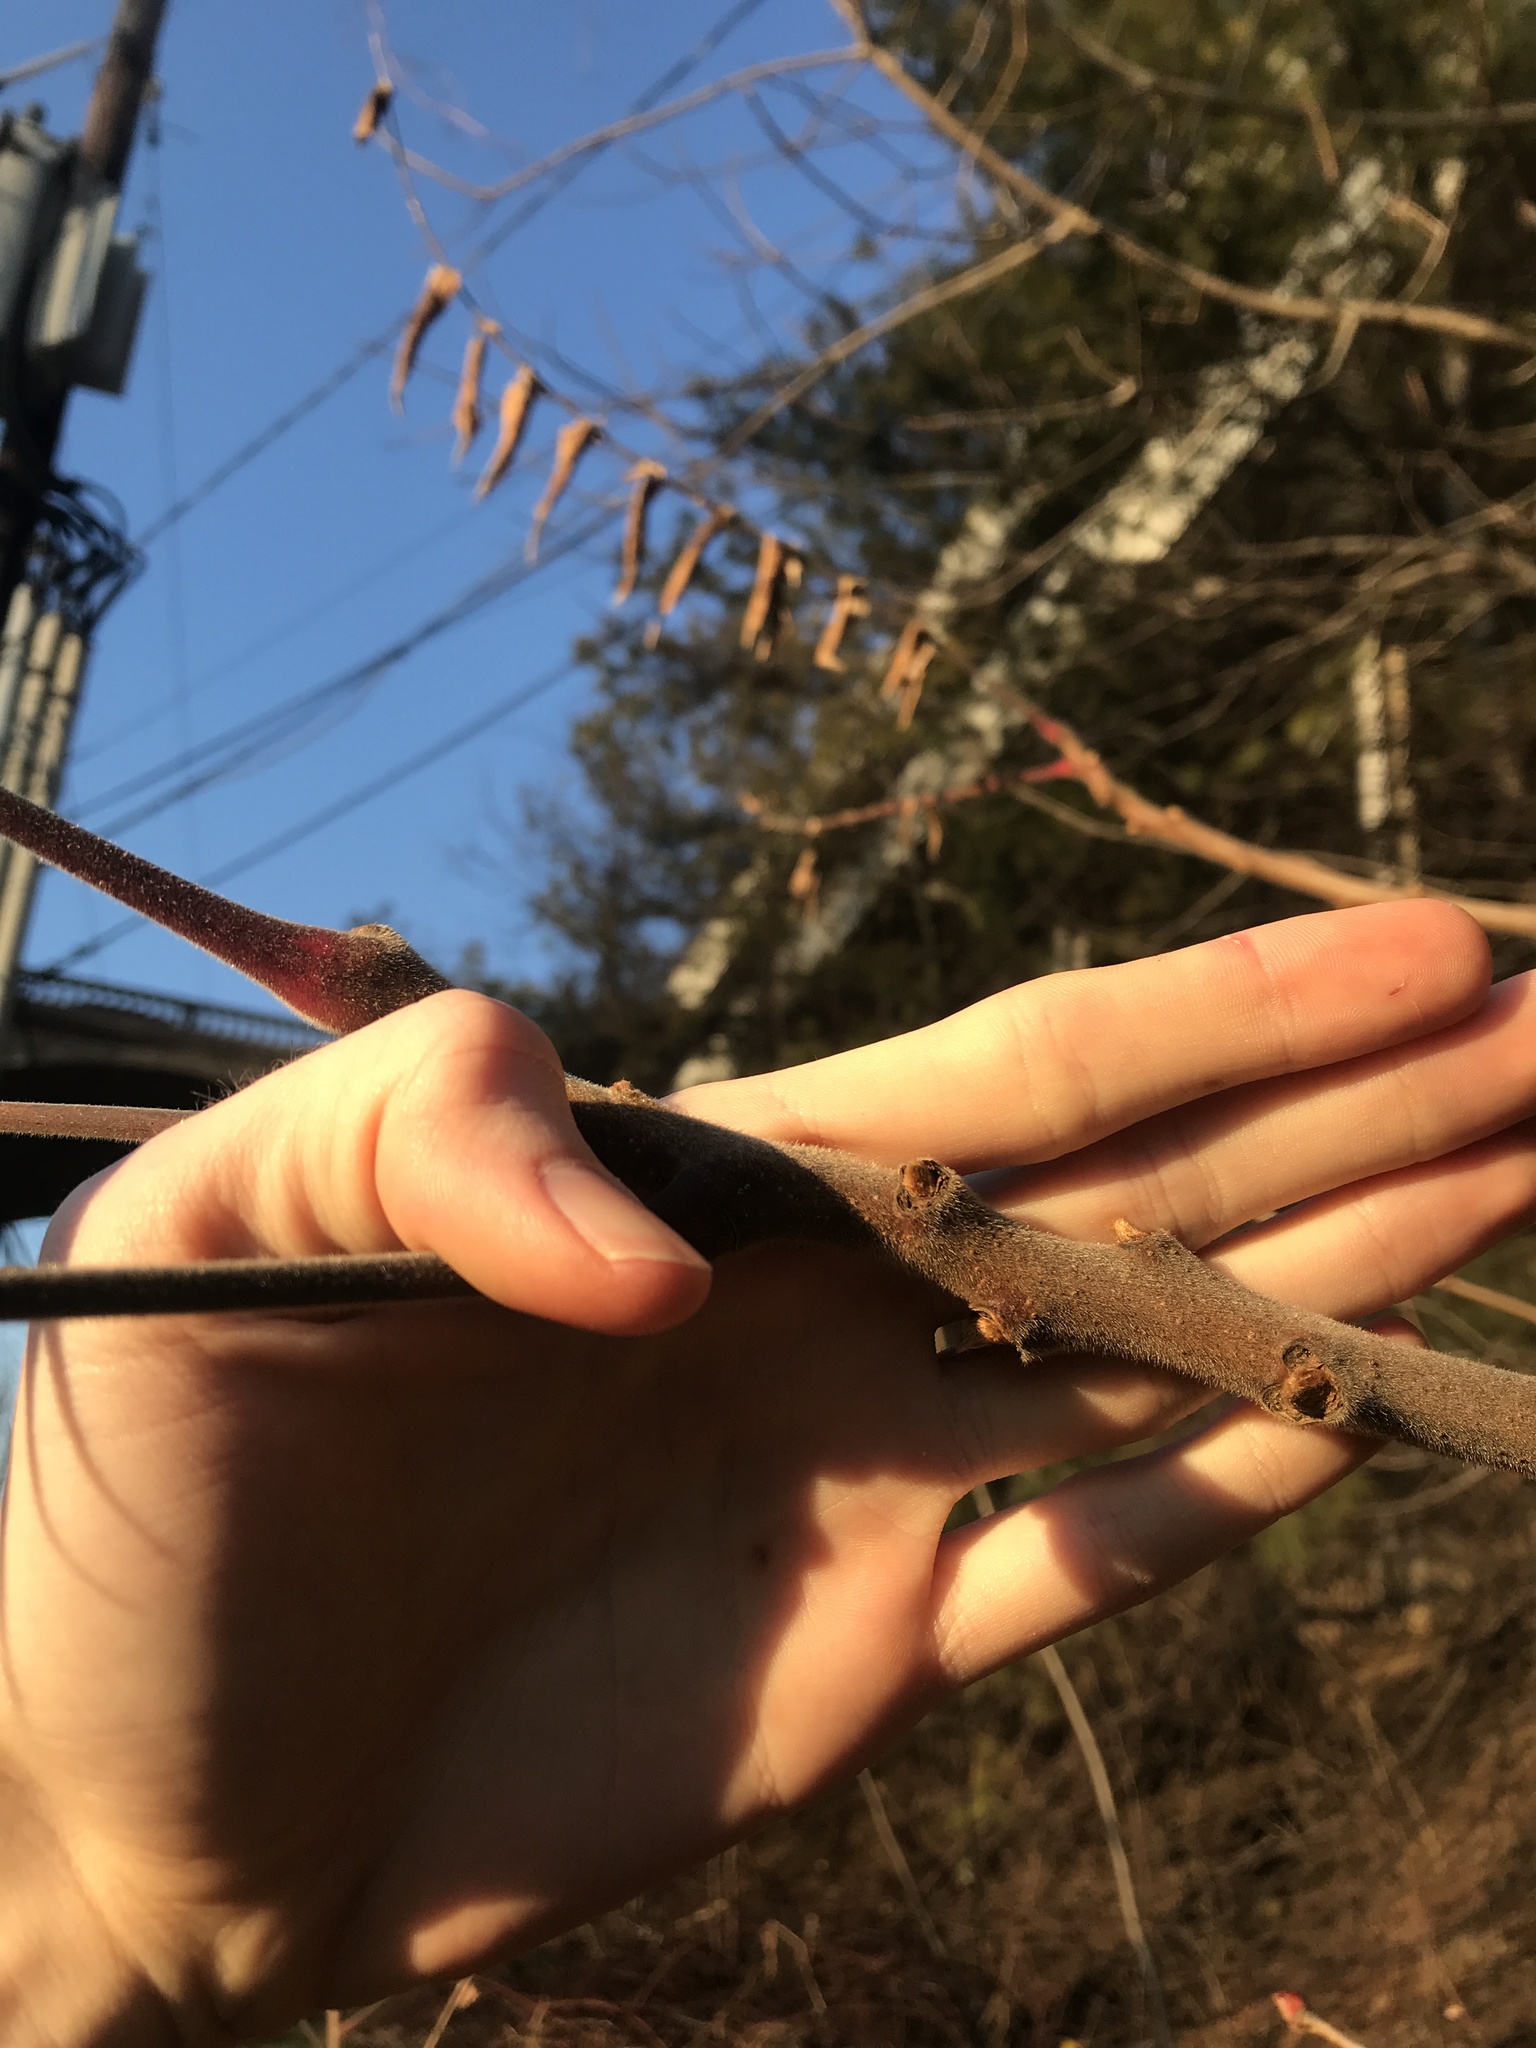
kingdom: Plantae
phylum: Tracheophyta
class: Magnoliopsida
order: Sapindales
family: Anacardiaceae
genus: Rhus
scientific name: Rhus typhina
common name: Staghorn sumac
